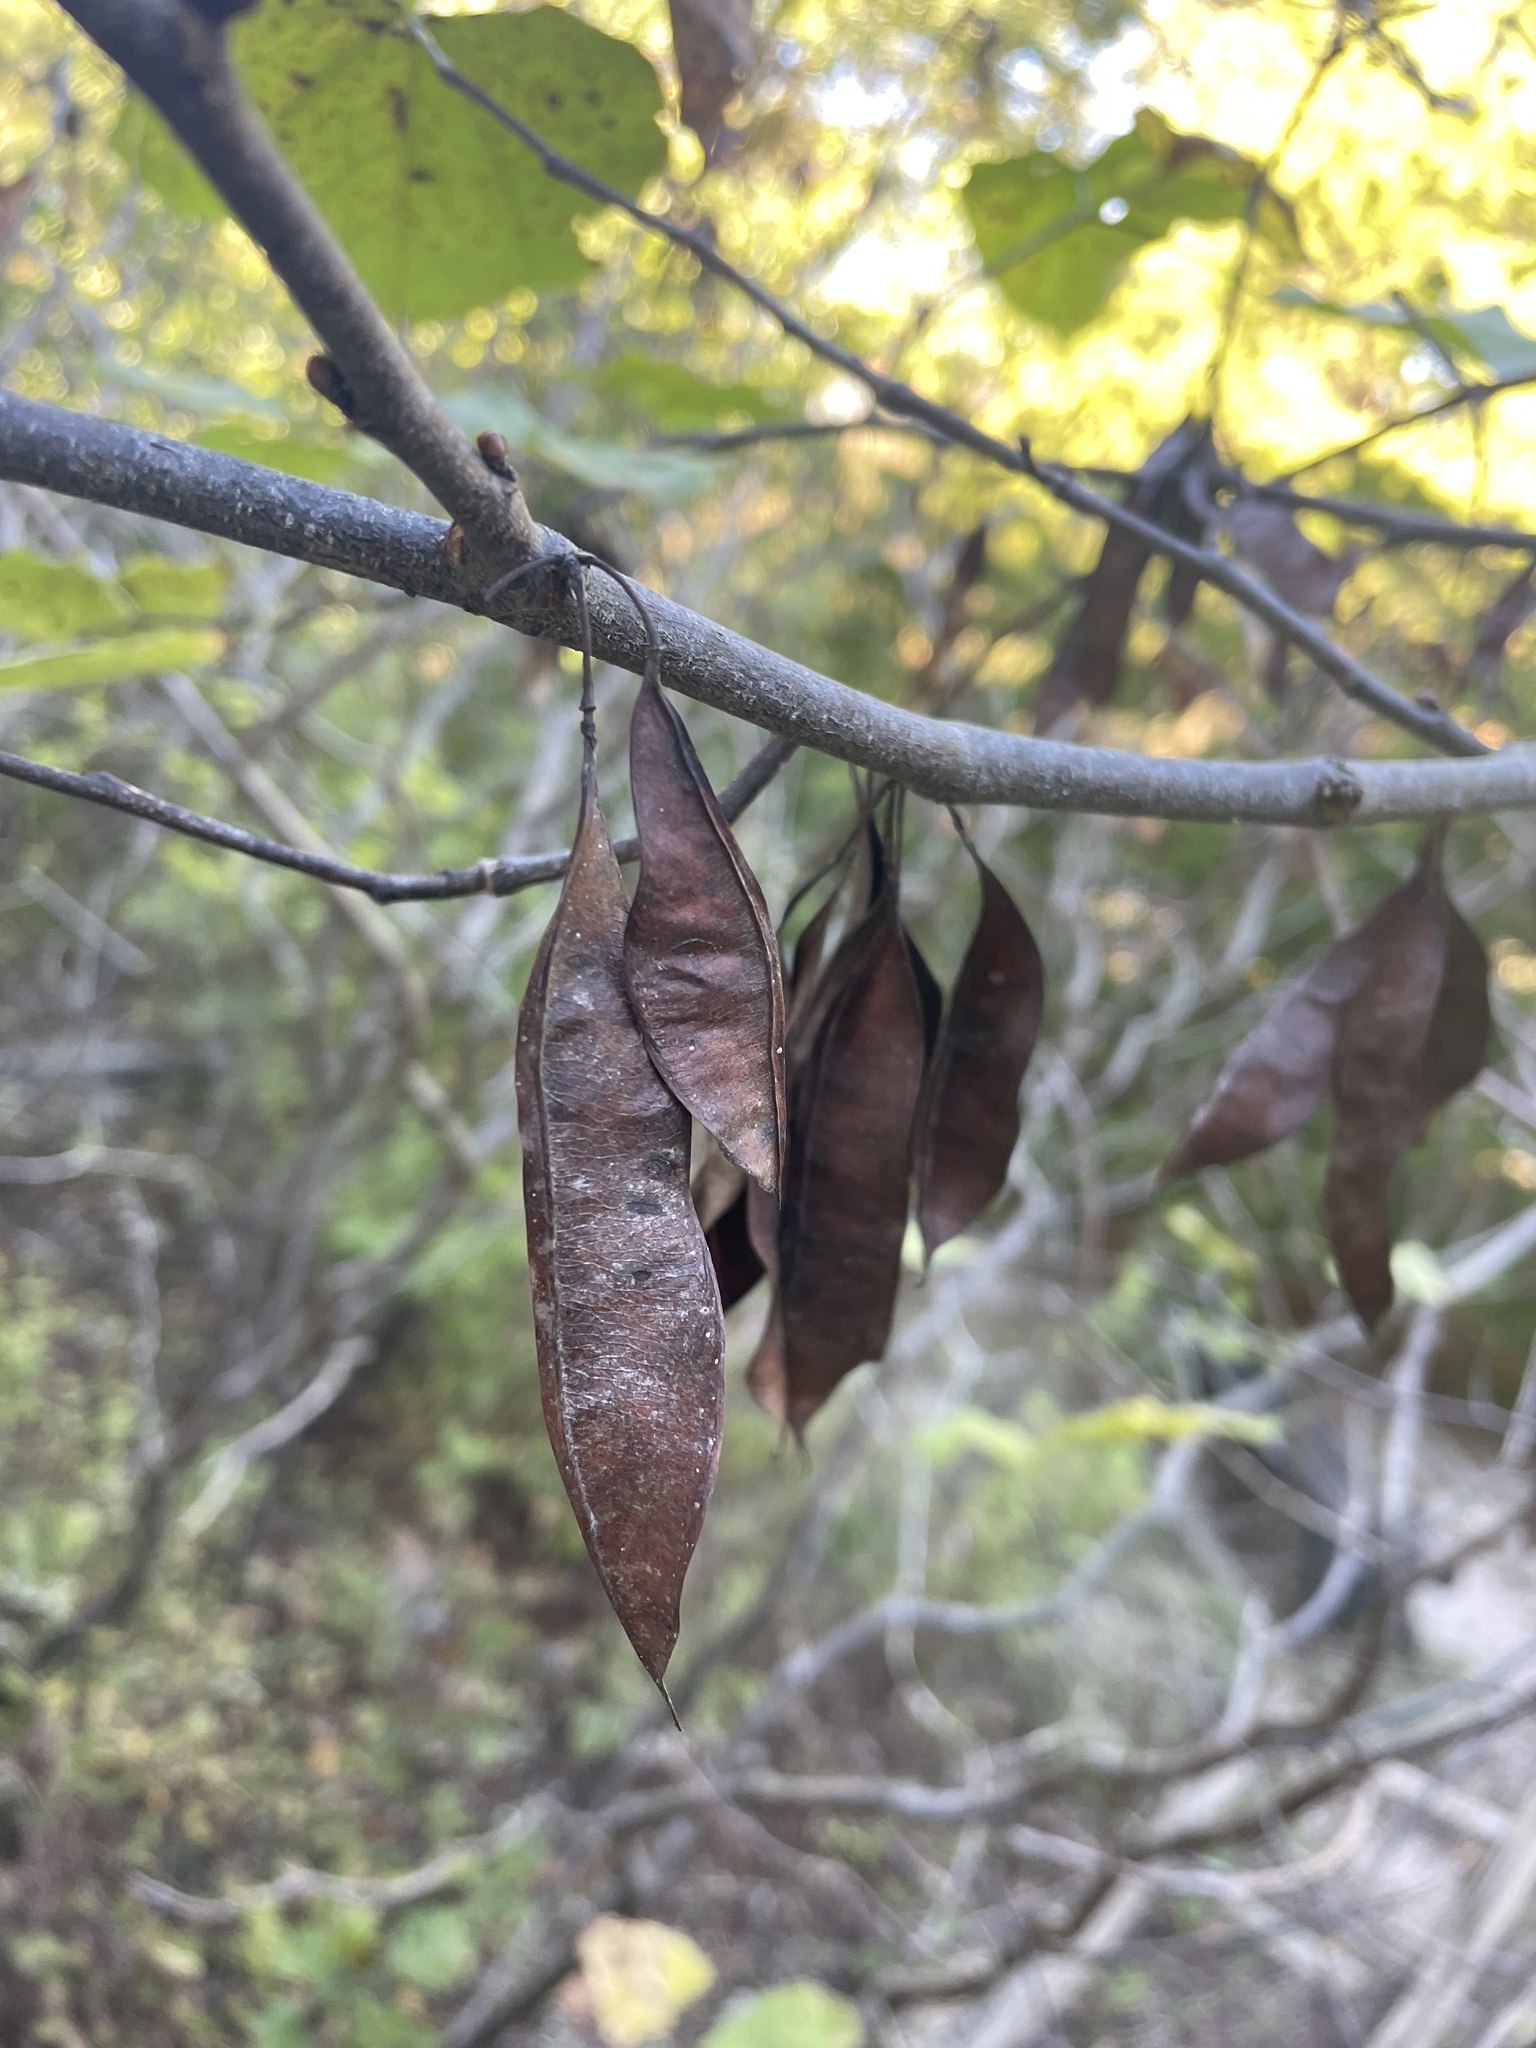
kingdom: Plantae
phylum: Tracheophyta
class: Magnoliopsida
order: Fabales
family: Fabaceae
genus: Cercis
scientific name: Cercis canadensis
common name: Eastern redbud
